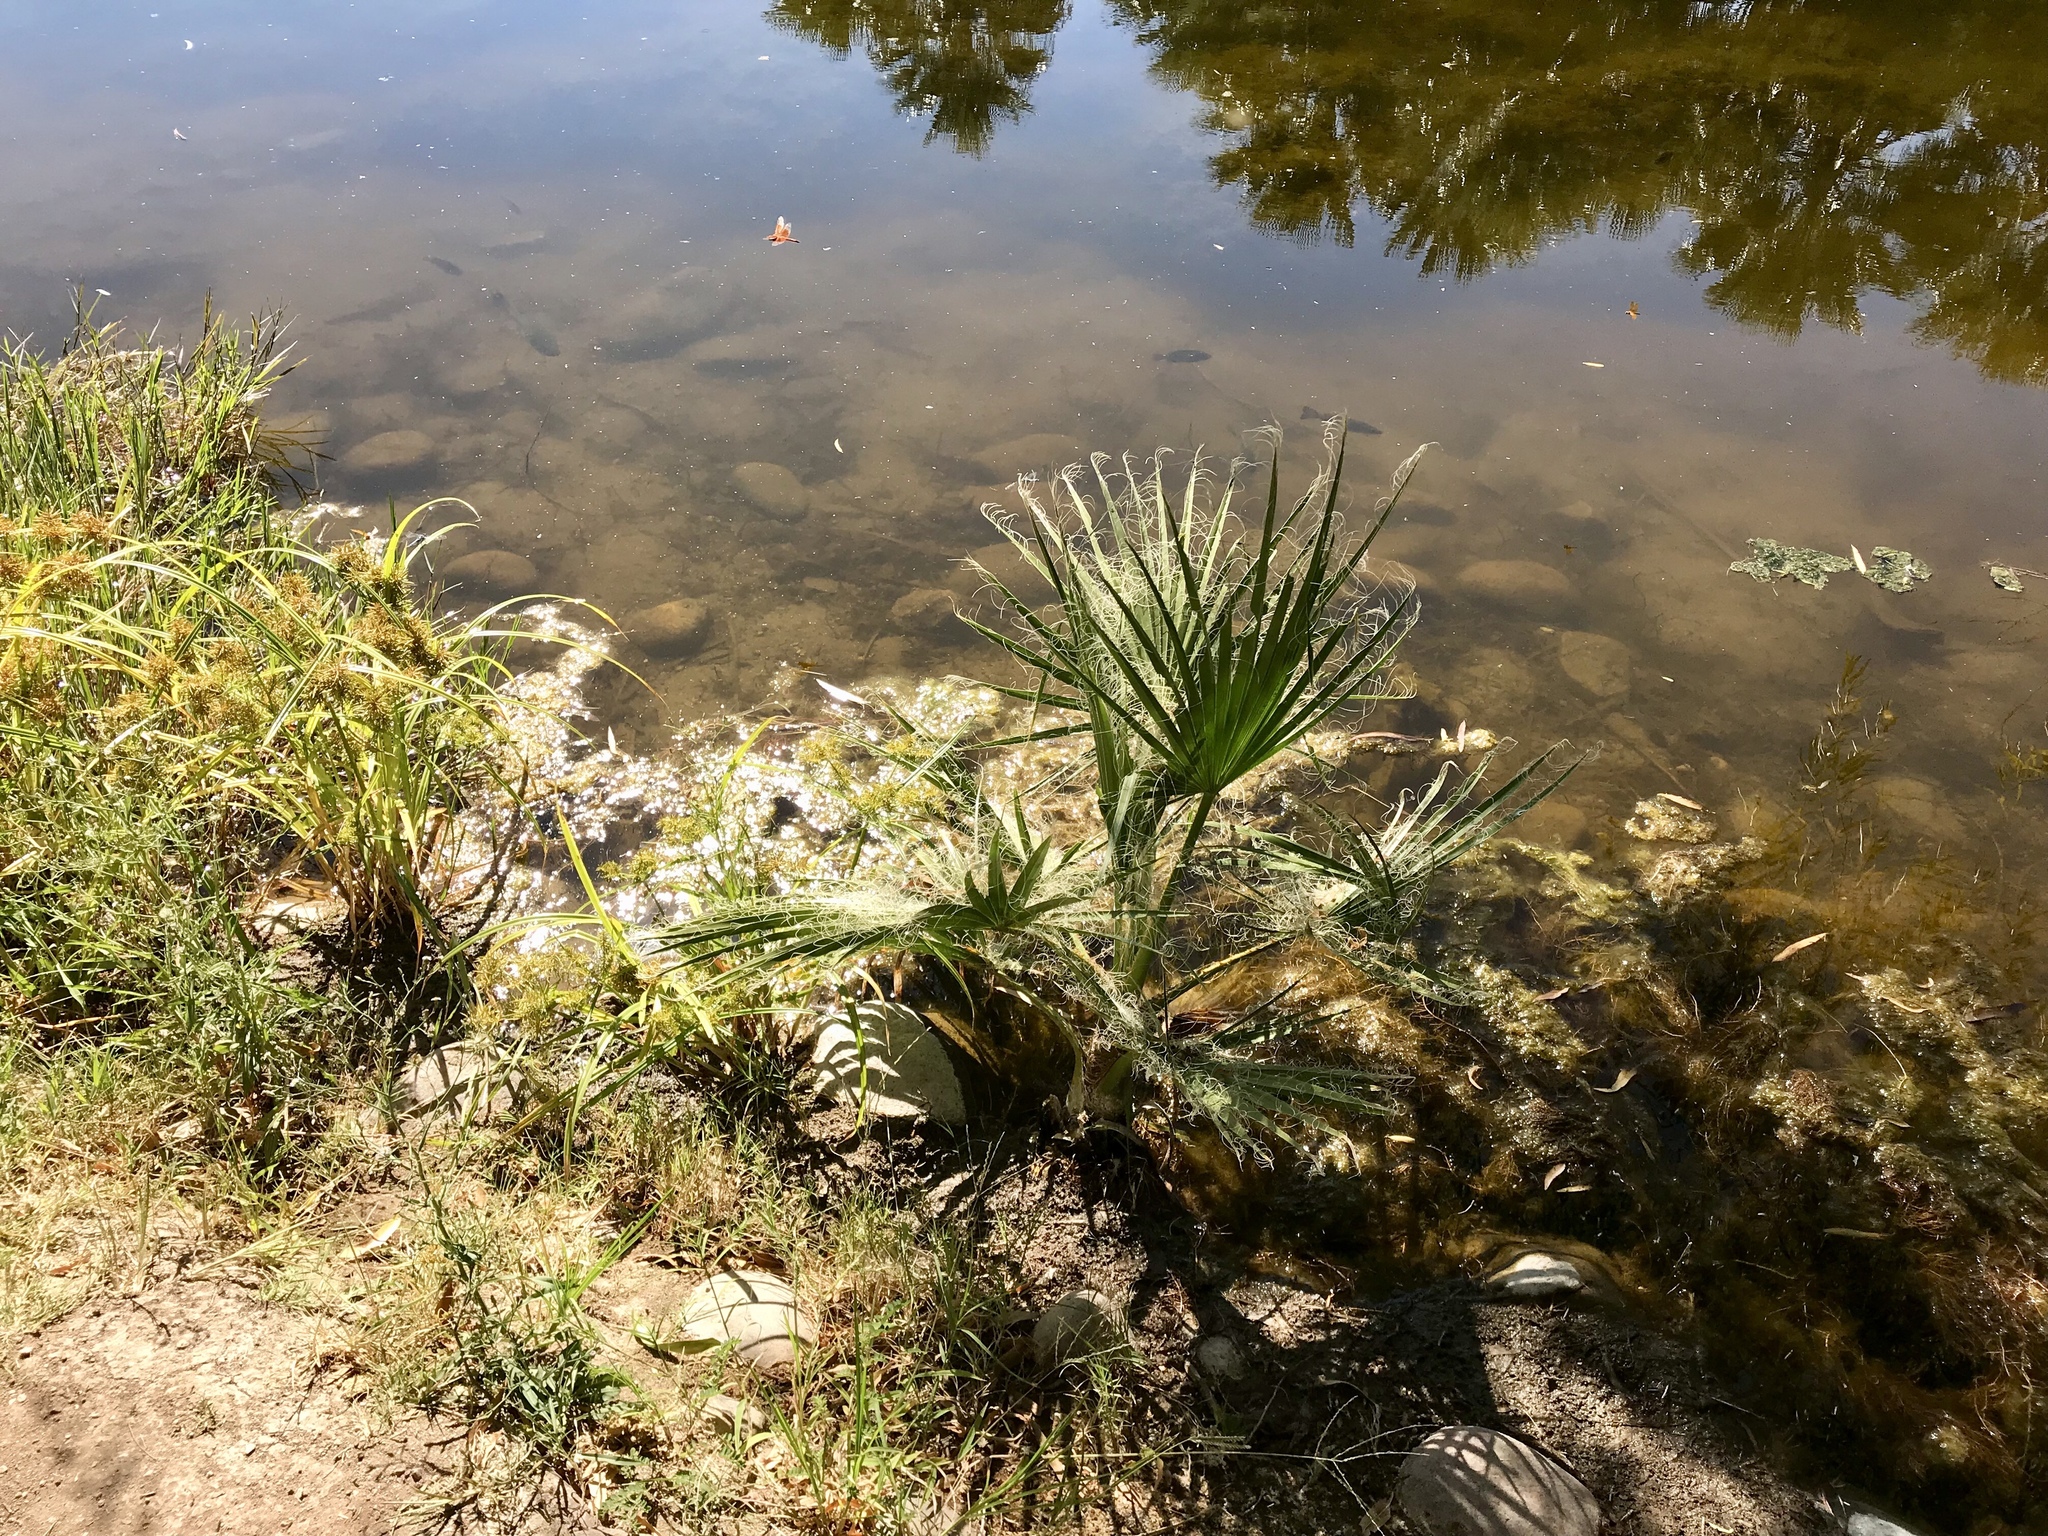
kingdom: Plantae
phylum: Tracheophyta
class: Liliopsida
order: Arecales
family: Arecaceae
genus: Washingtonia
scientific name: Washingtonia filifera
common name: California fan palm
